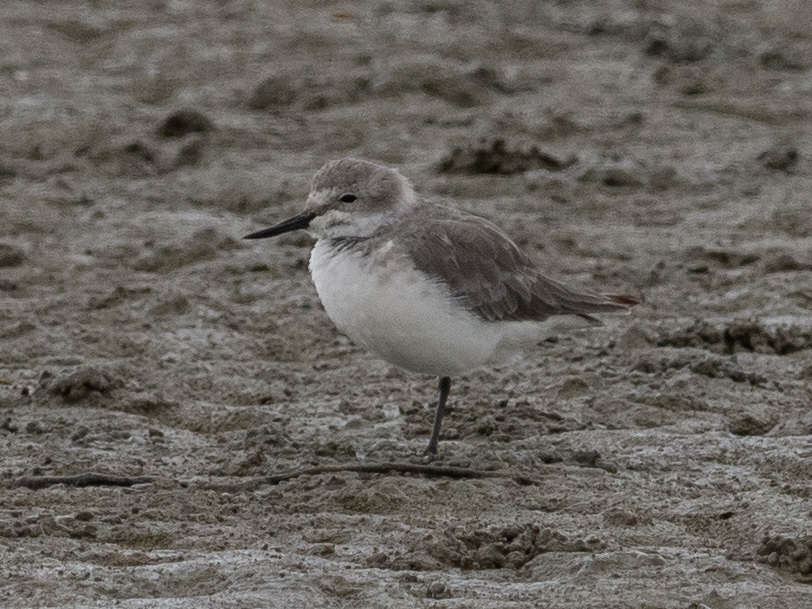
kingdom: Animalia
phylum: Chordata
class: Aves
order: Charadriiformes
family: Charadriidae
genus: Anarhynchus
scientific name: Anarhynchus frontalis
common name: Wrybill
